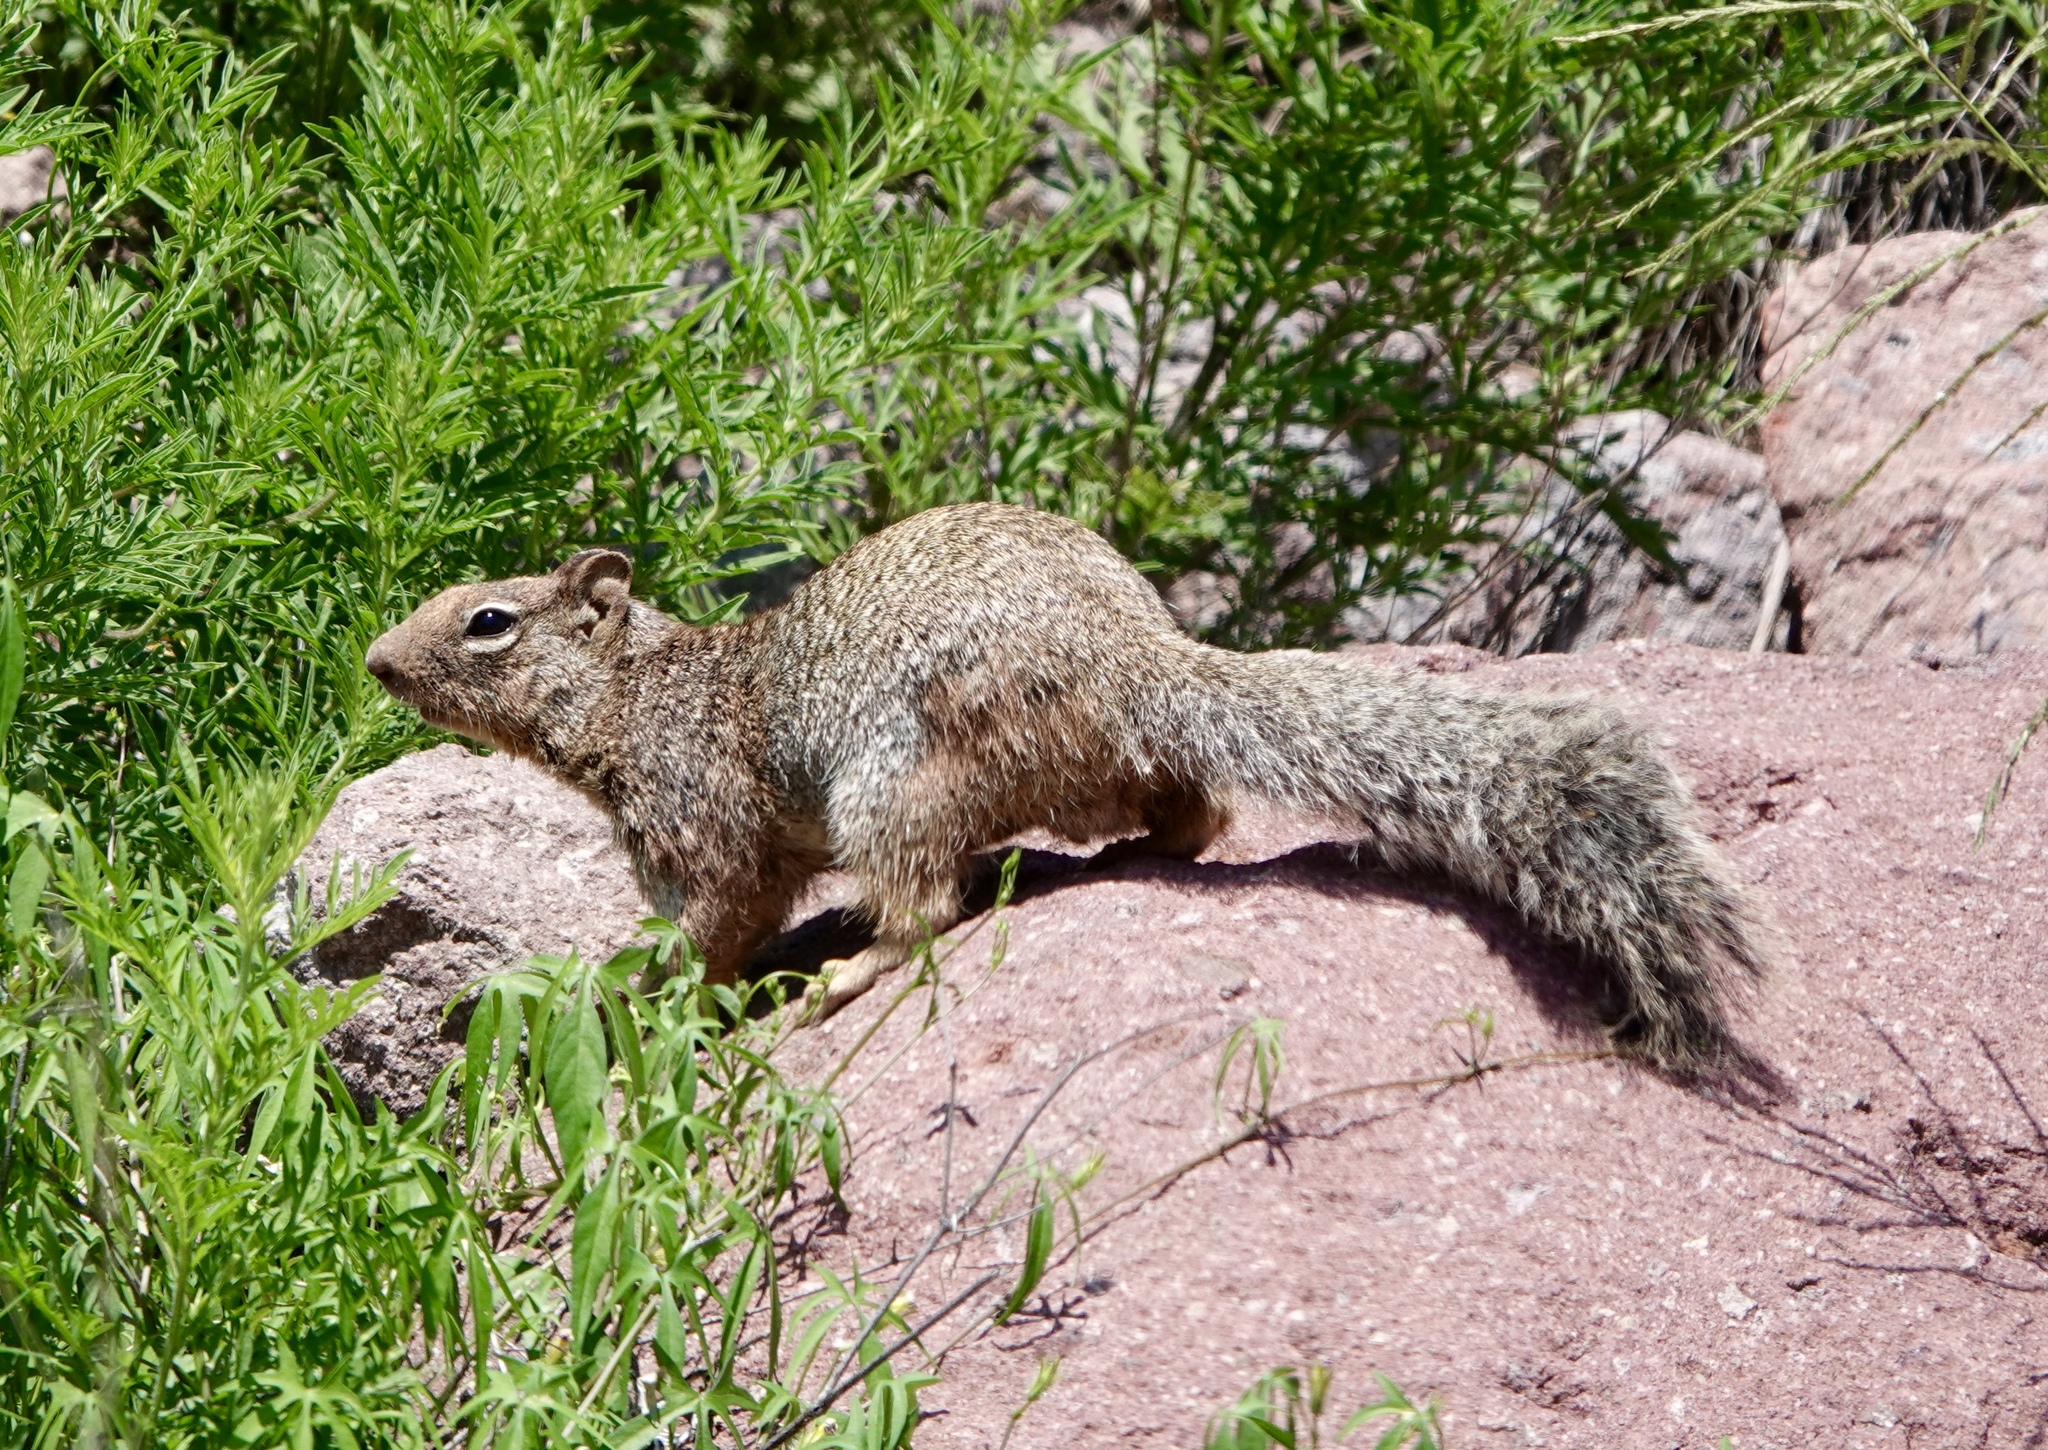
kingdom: Animalia
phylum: Chordata
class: Mammalia
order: Rodentia
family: Sciuridae
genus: Otospermophilus
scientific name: Otospermophilus variegatus
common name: Rock squirrel
